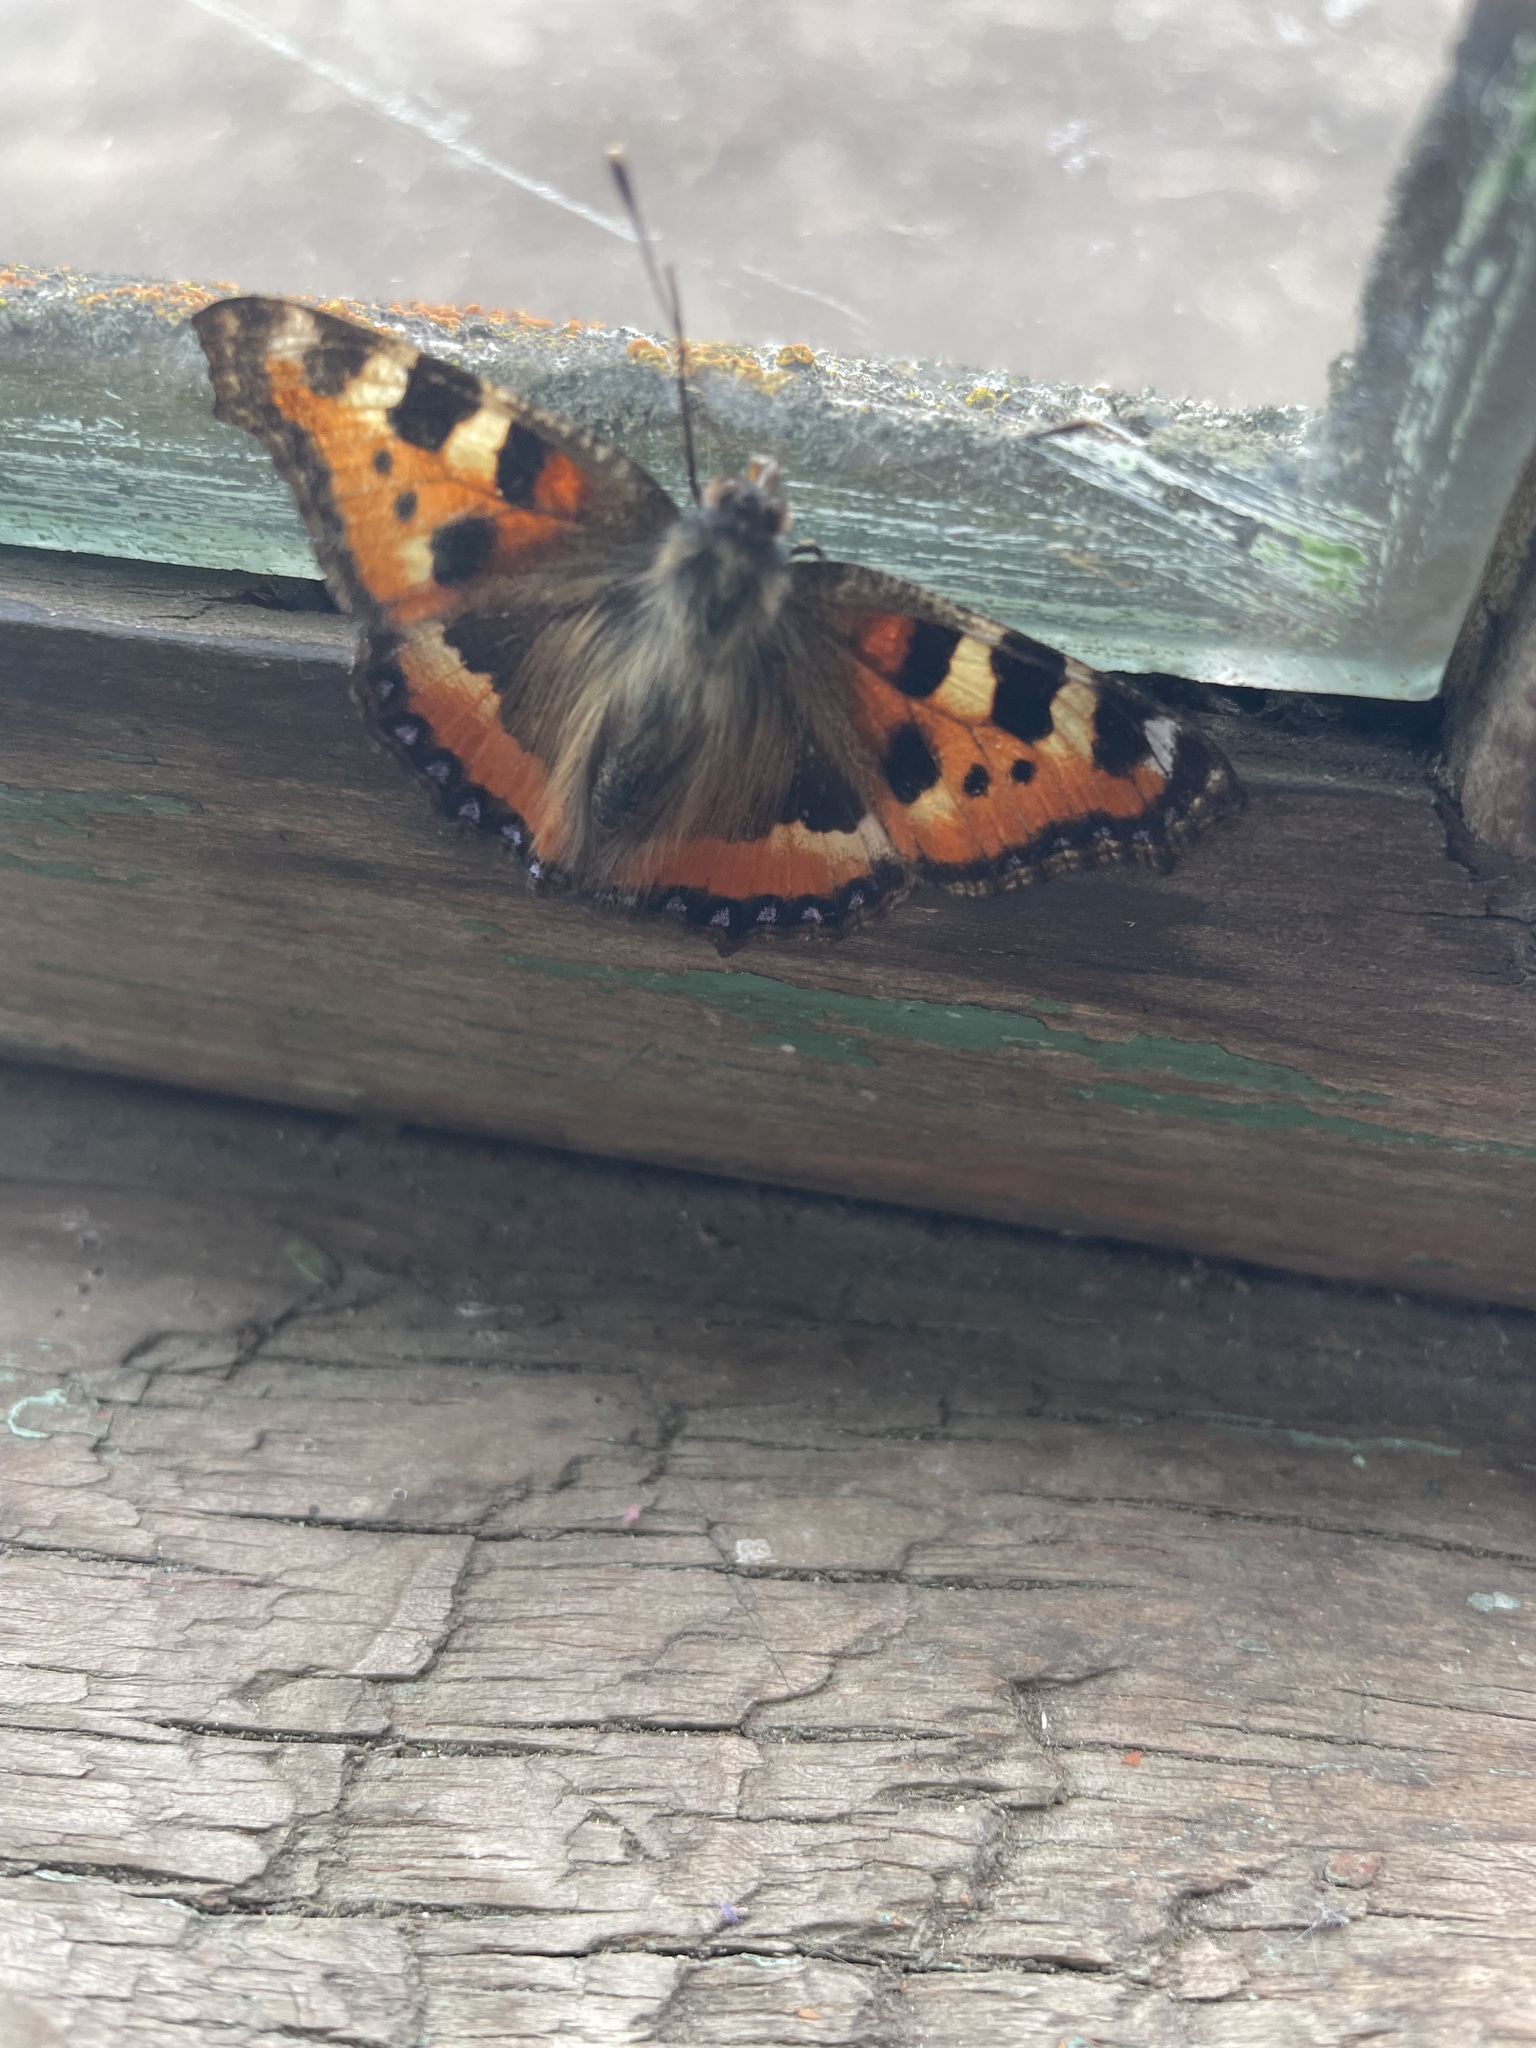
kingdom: Animalia
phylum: Arthropoda
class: Insecta
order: Lepidoptera
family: Nymphalidae
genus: Aglais
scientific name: Aglais urticae
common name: Small tortoiseshell
